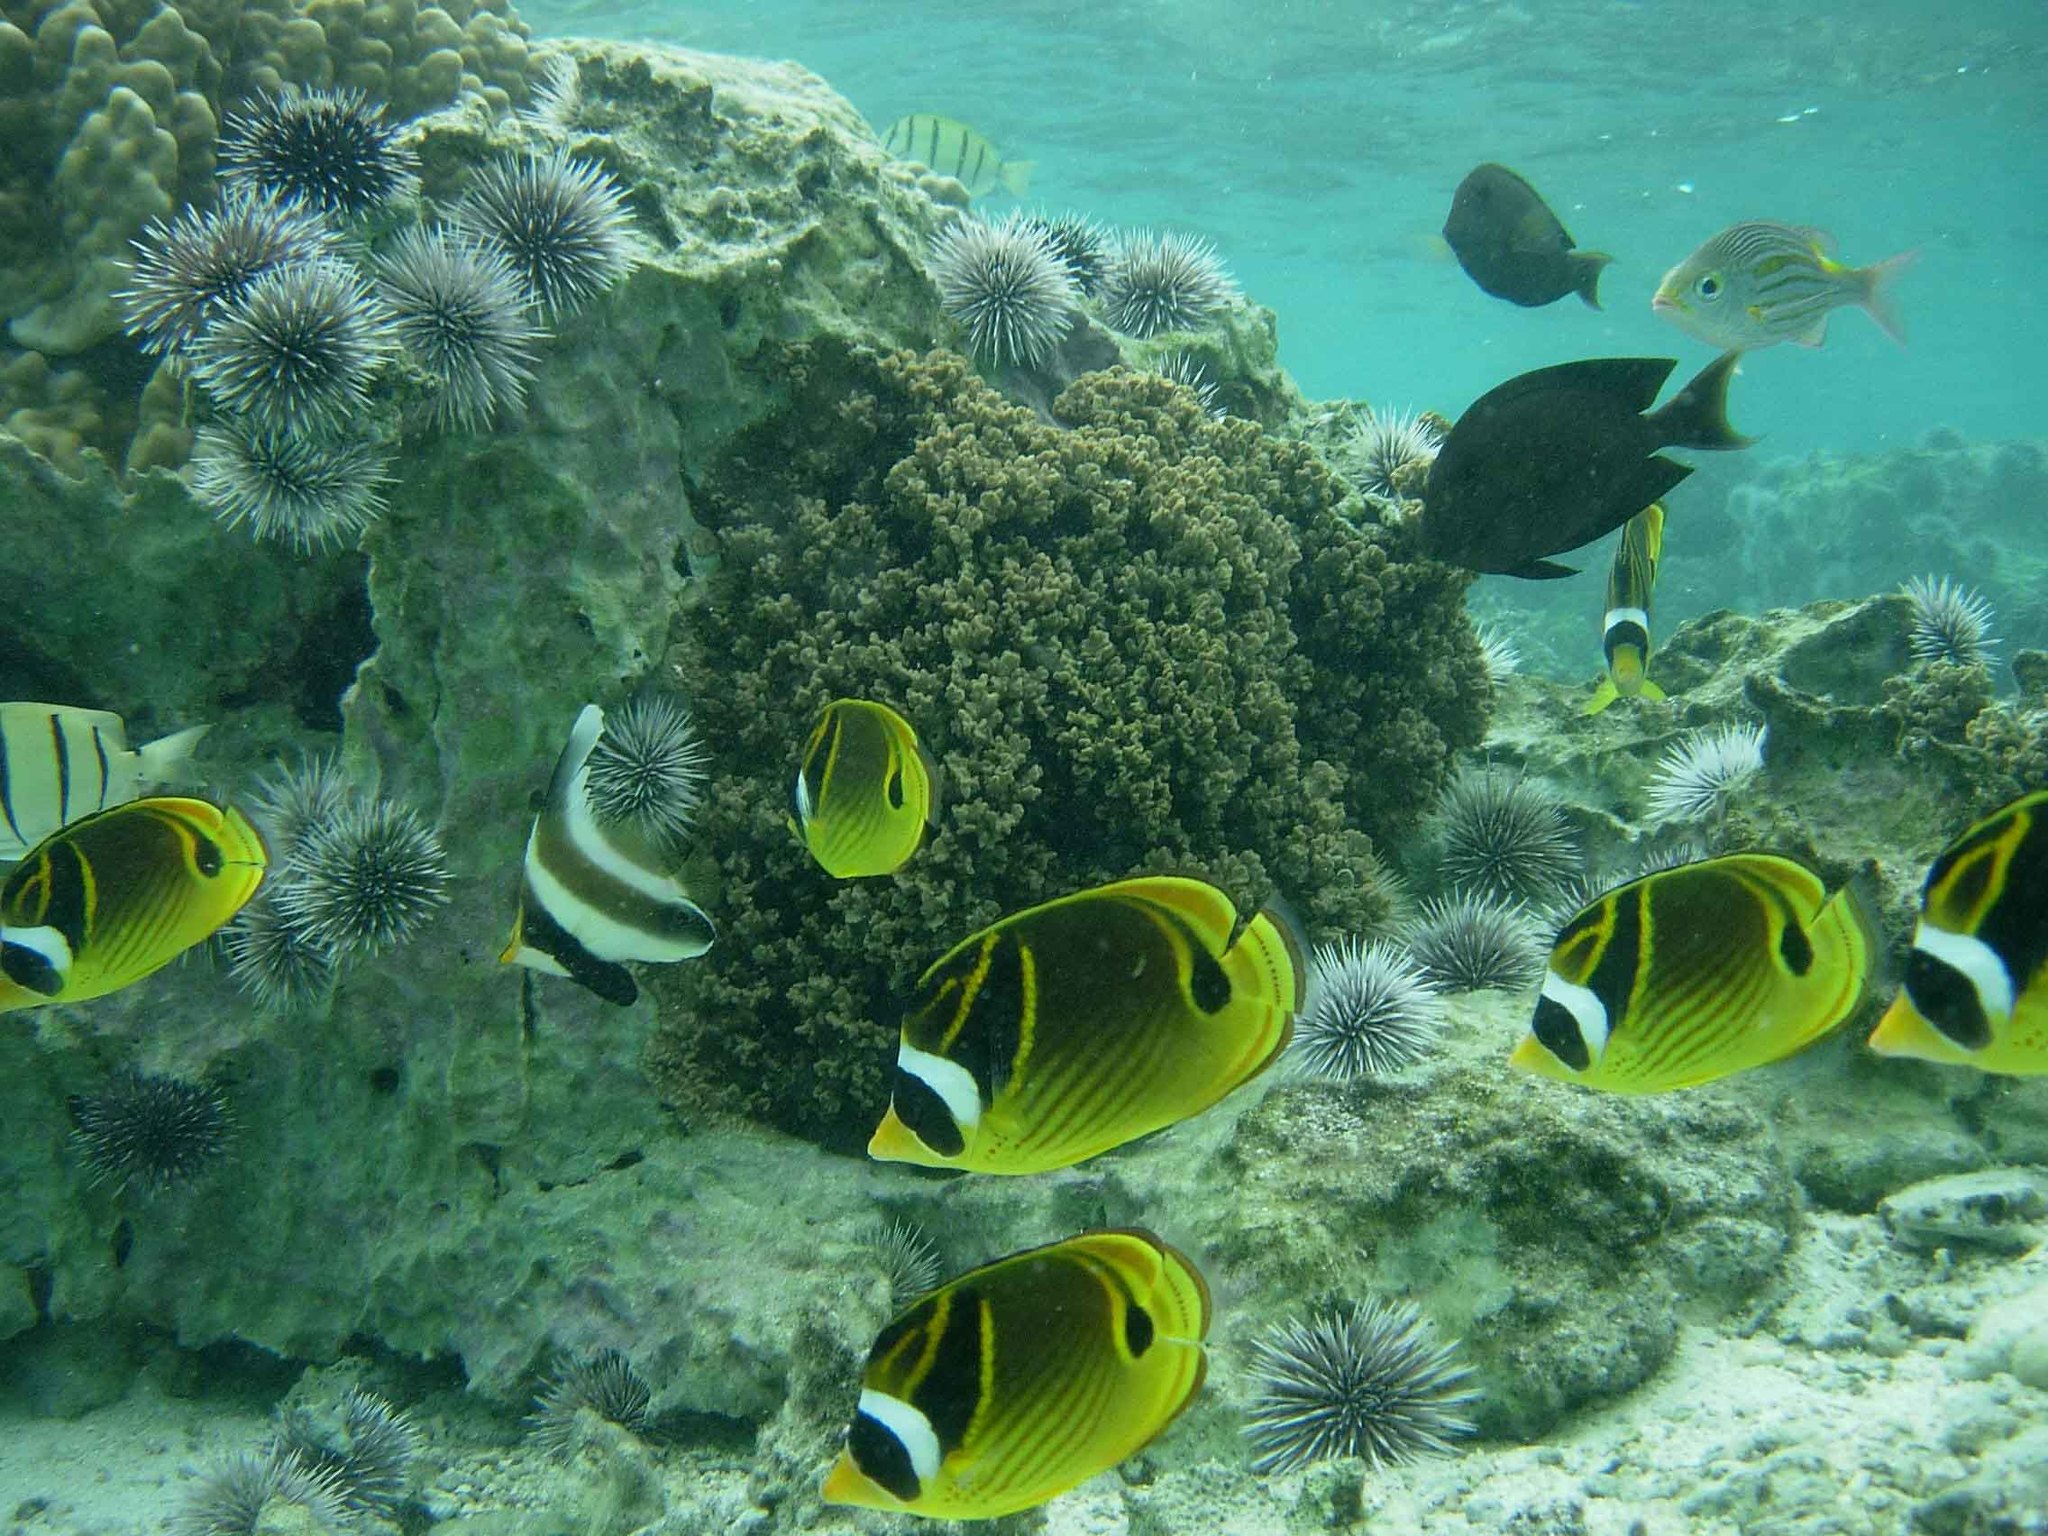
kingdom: Animalia
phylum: Chordata
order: Perciformes
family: Chaetodontidae
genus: Chaetodon
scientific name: Chaetodon lunula
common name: Raccoon butterflyfish
